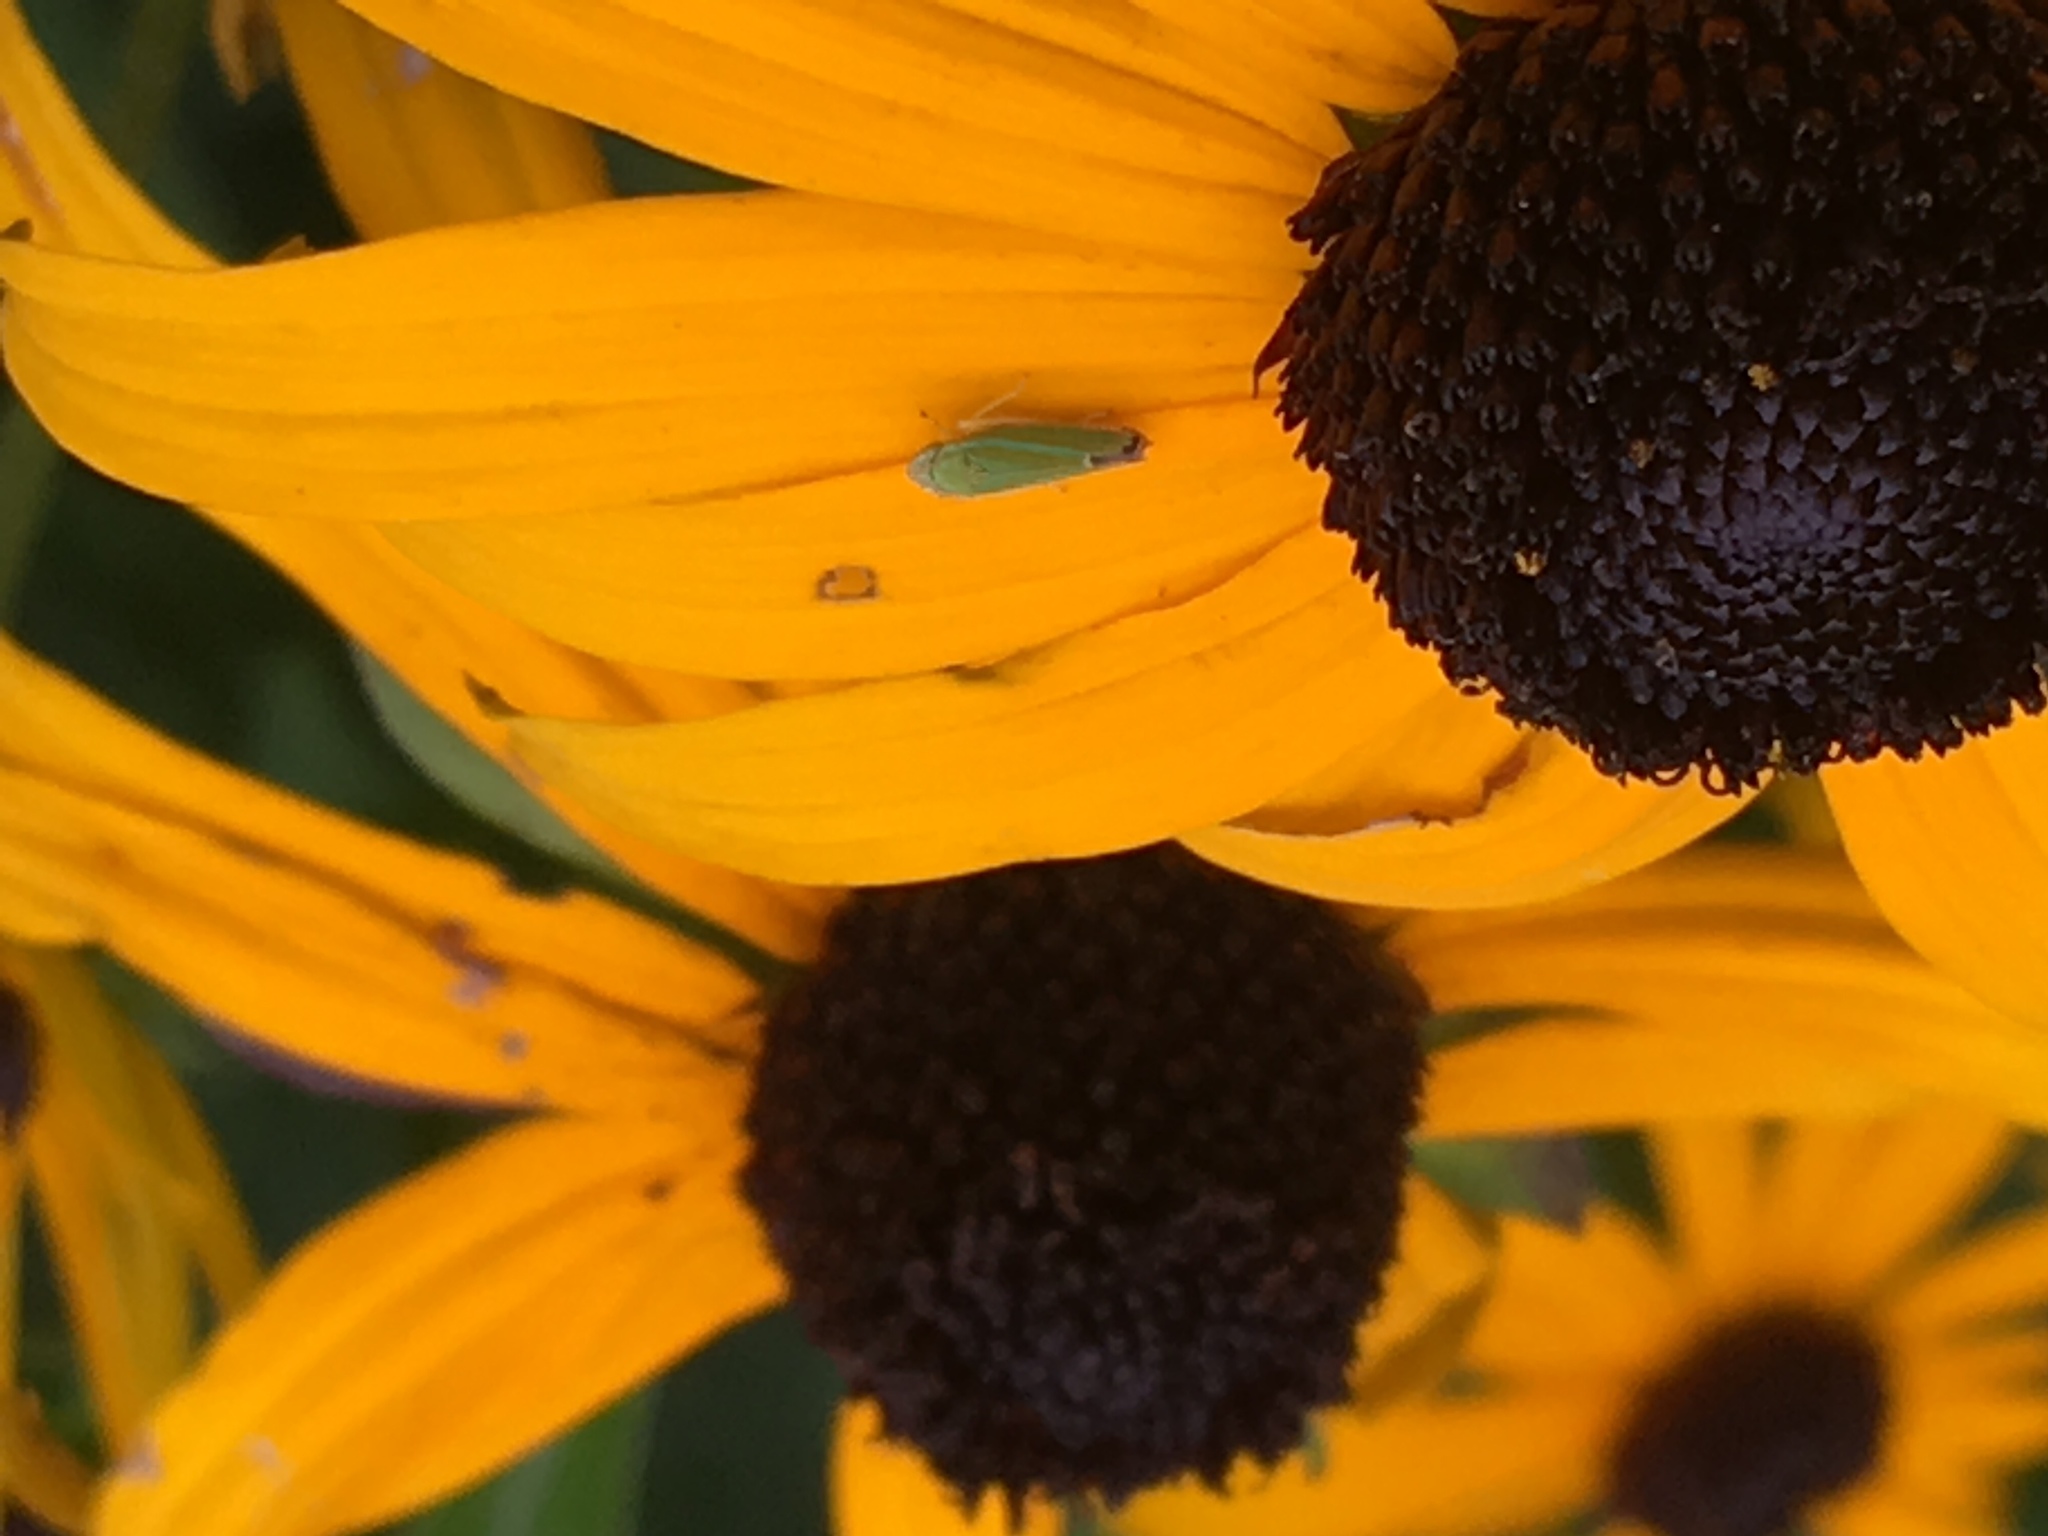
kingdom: Animalia
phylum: Arthropoda
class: Insecta
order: Hemiptera
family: Cicadellidae
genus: Graphocephala
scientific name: Graphocephala versuta
